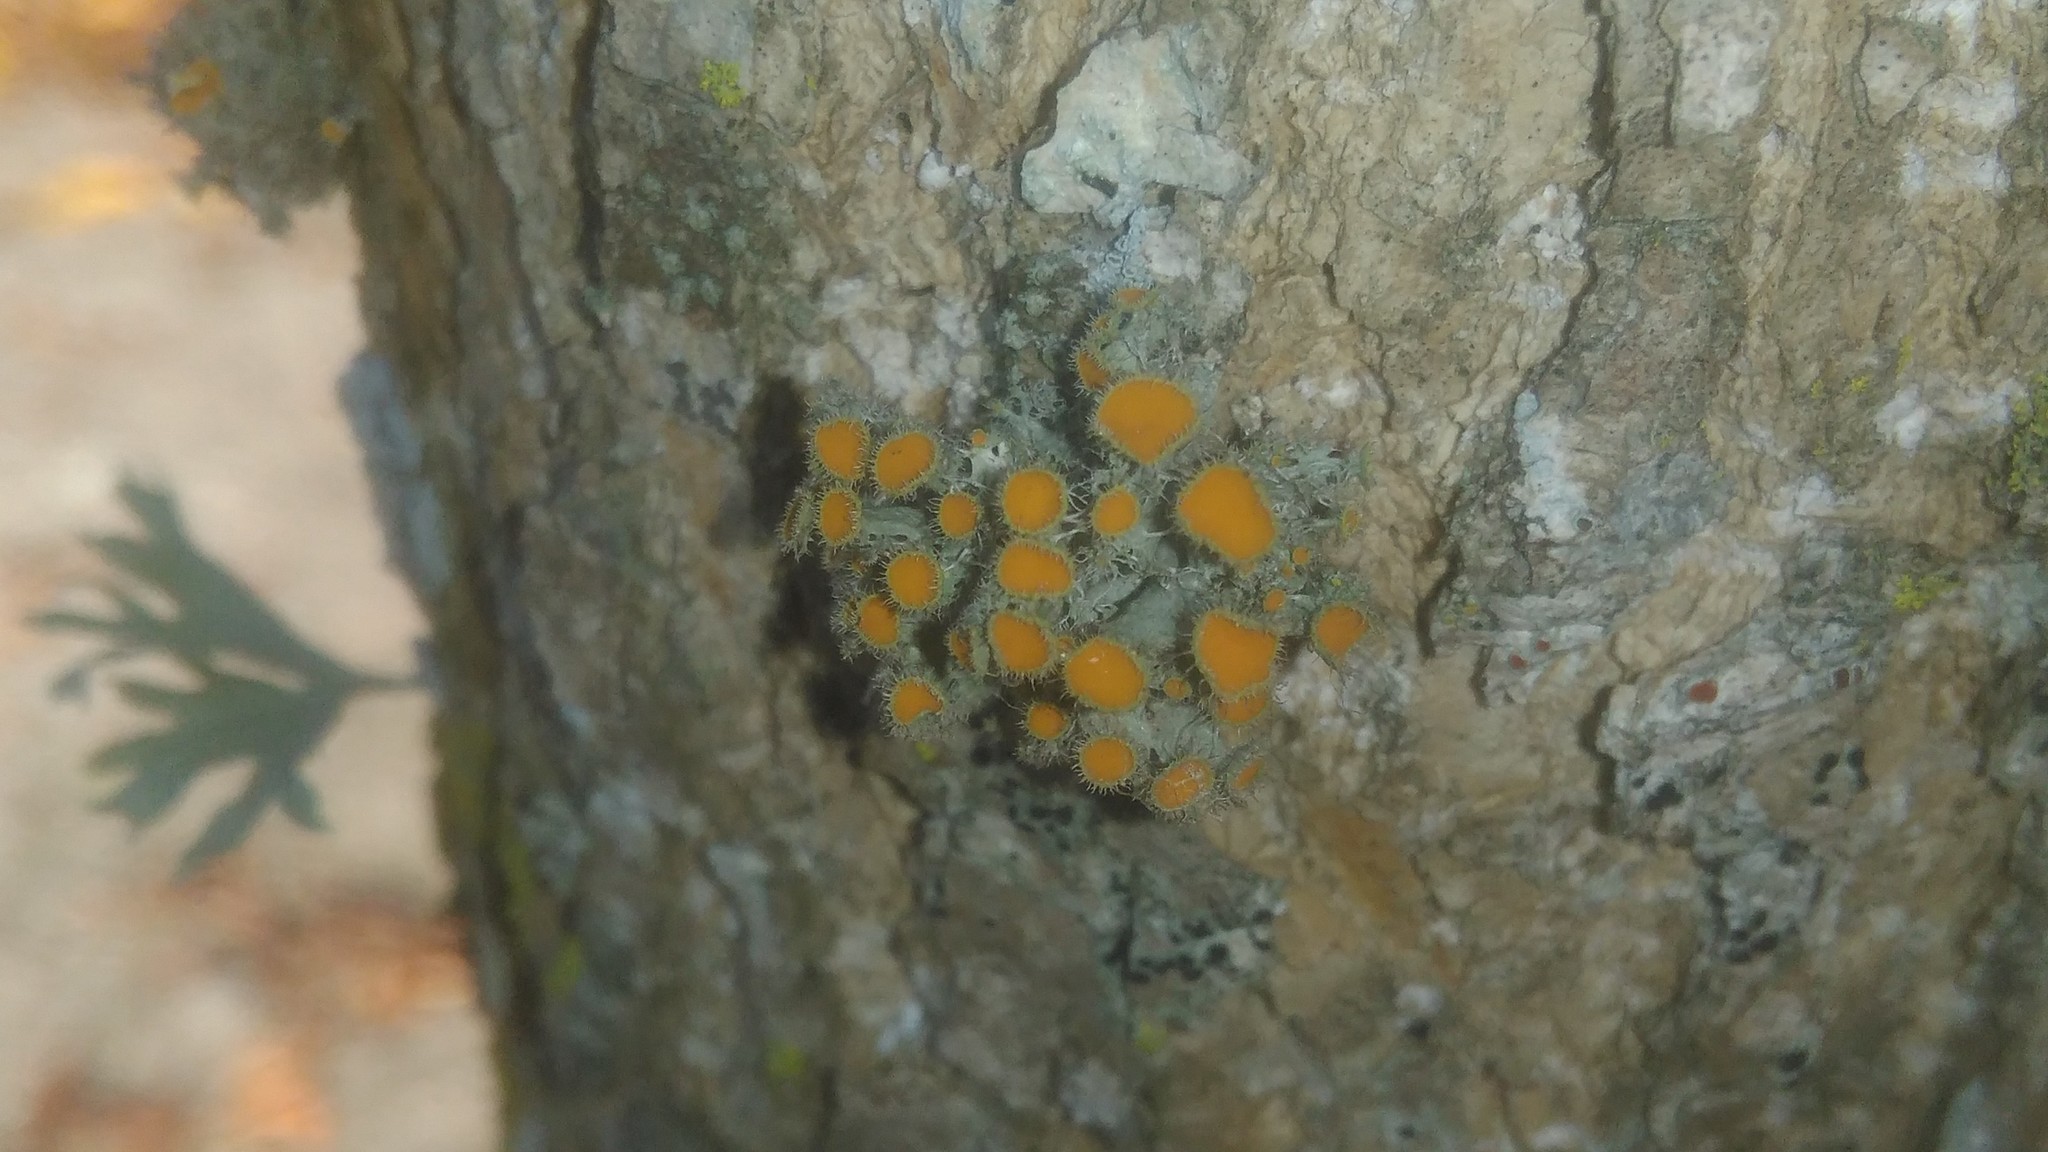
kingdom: Fungi
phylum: Ascomycota
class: Lecanoromycetes
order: Teloschistales
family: Teloschistaceae
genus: Niorma
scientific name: Niorma chrysophthalma
